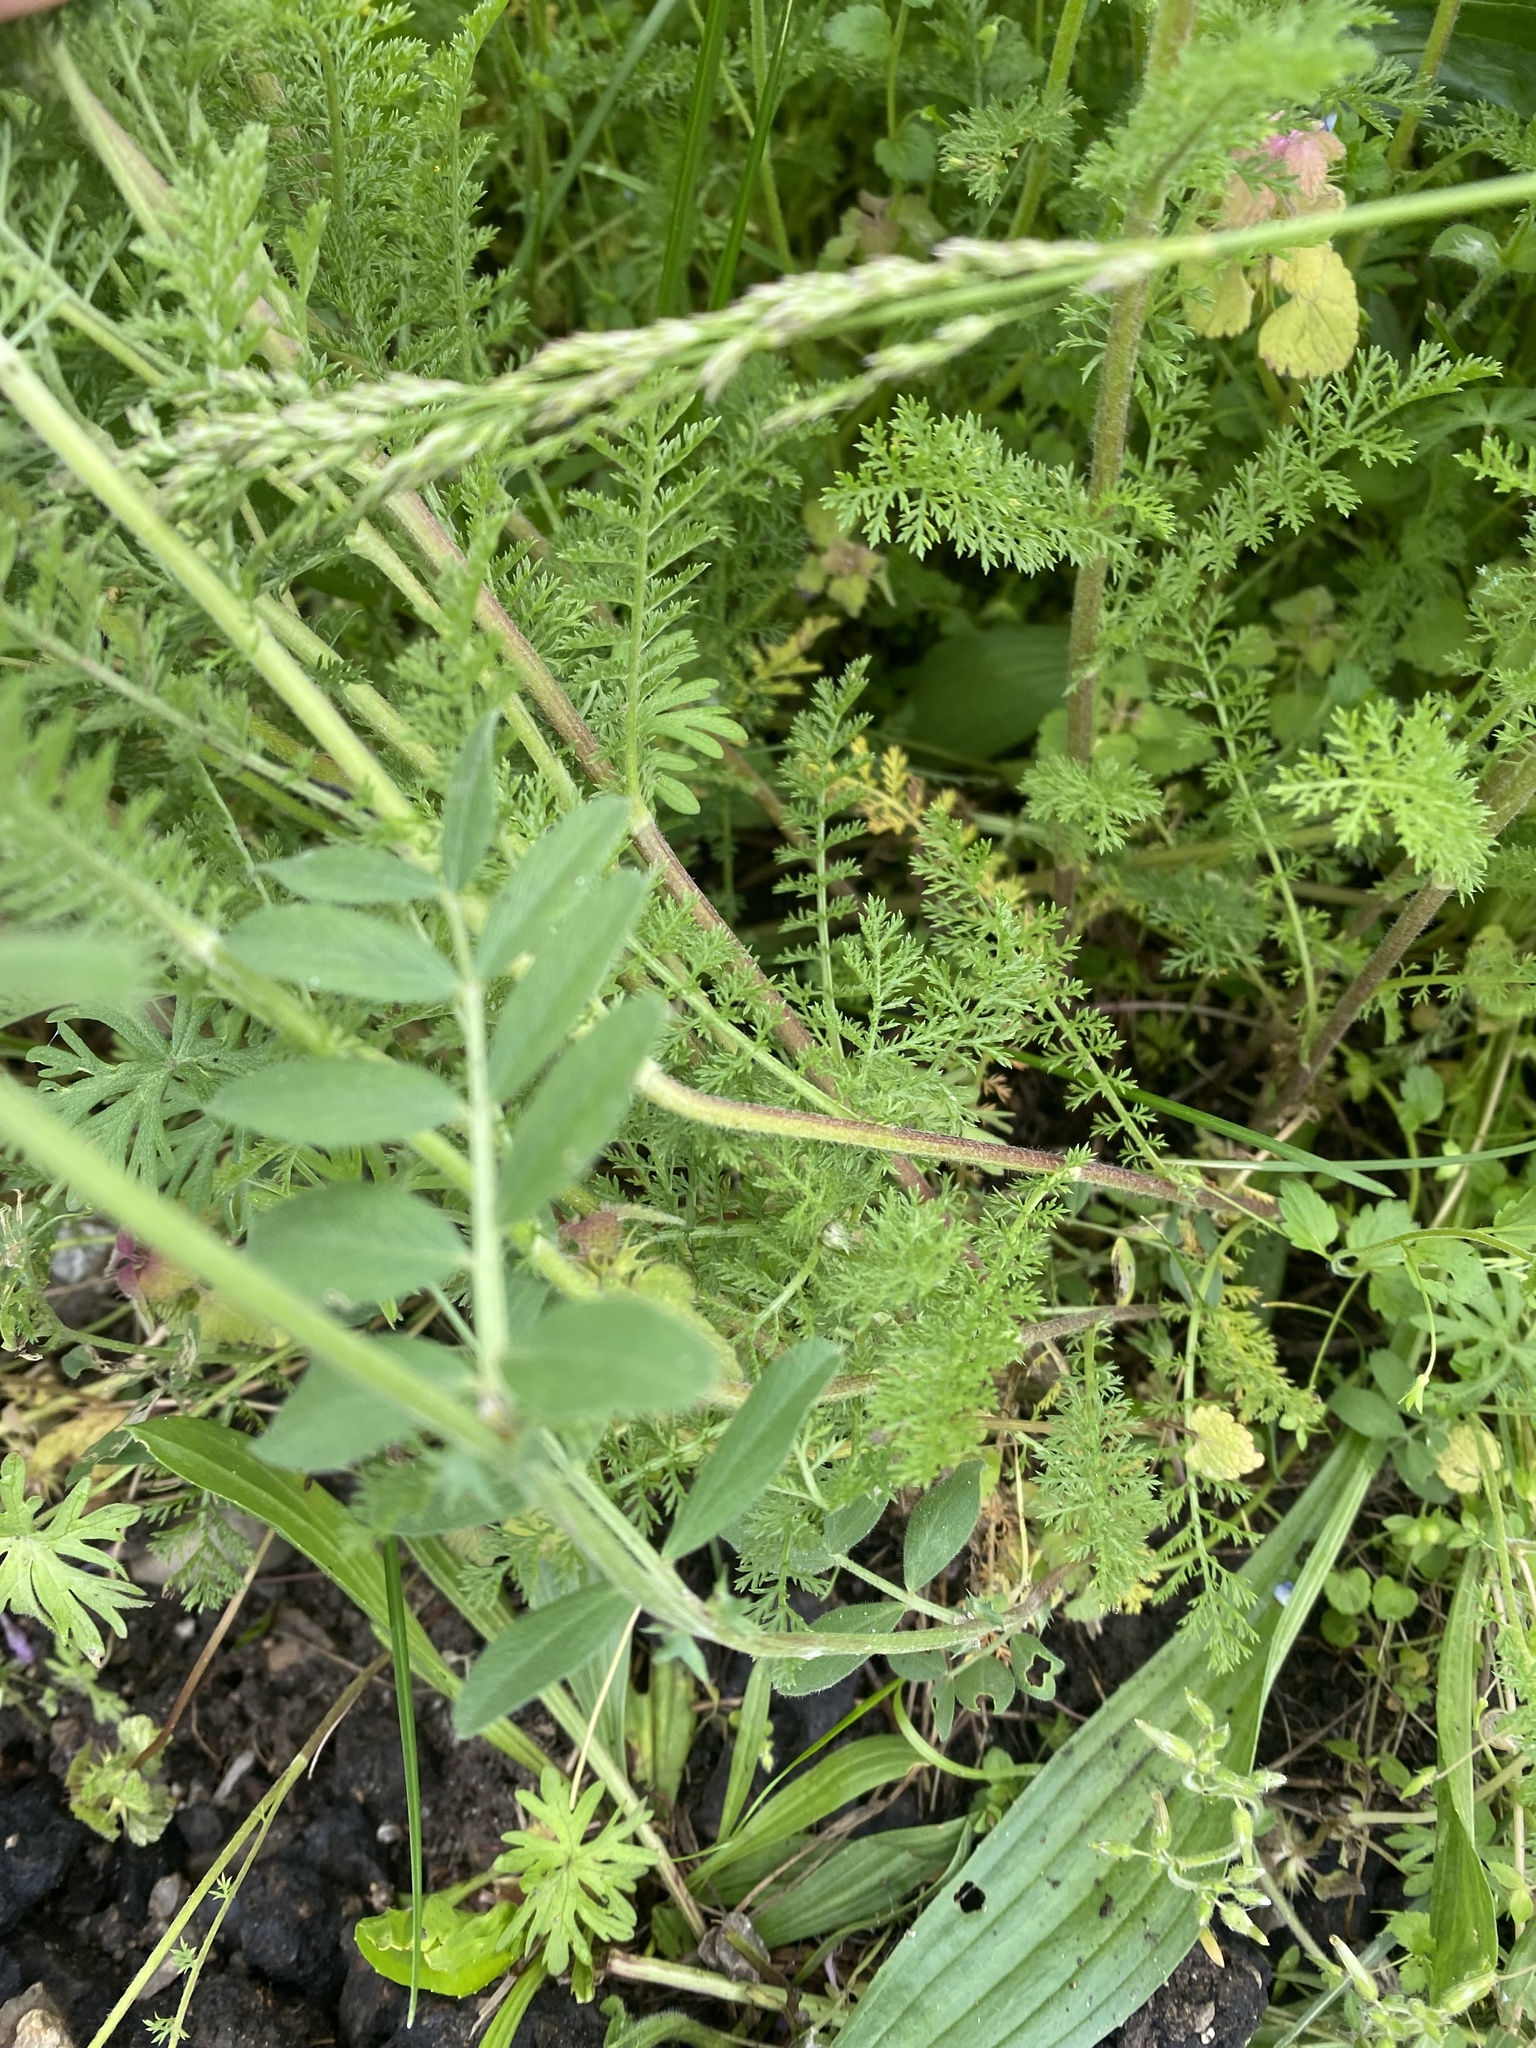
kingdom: Plantae
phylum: Tracheophyta
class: Magnoliopsida
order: Asterales
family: Asteraceae
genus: Achillea
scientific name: Achillea nobilis
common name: Noble yarrow
